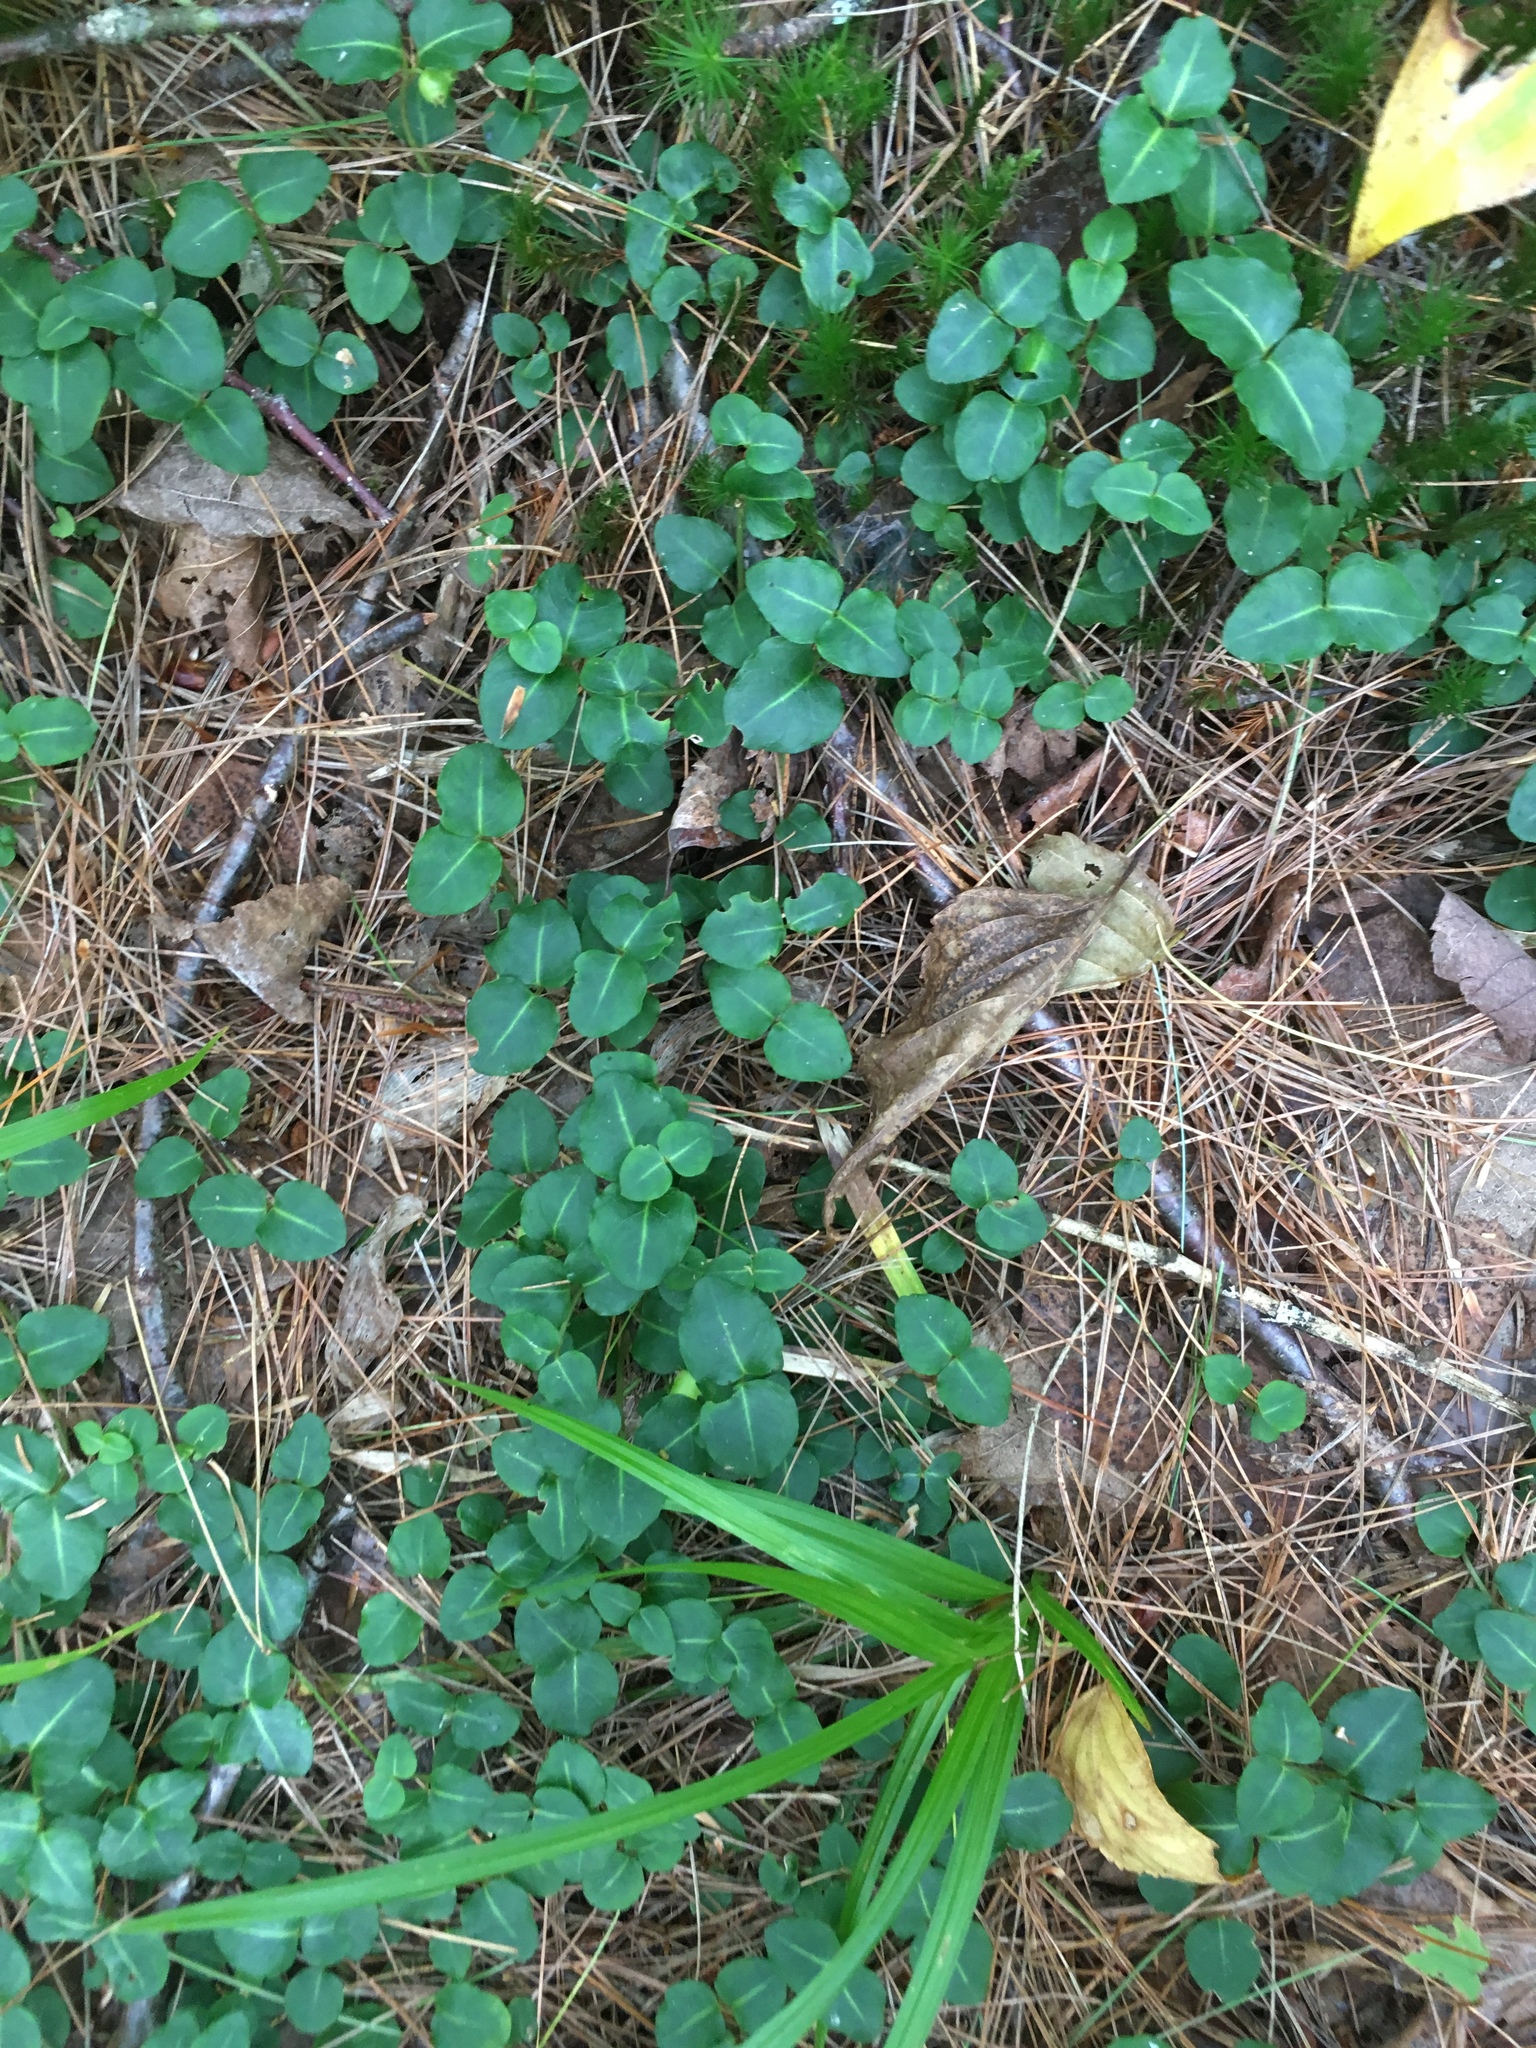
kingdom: Plantae
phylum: Tracheophyta
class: Magnoliopsida
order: Gentianales
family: Rubiaceae
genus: Mitchella
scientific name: Mitchella repens
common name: Partridge-berry
